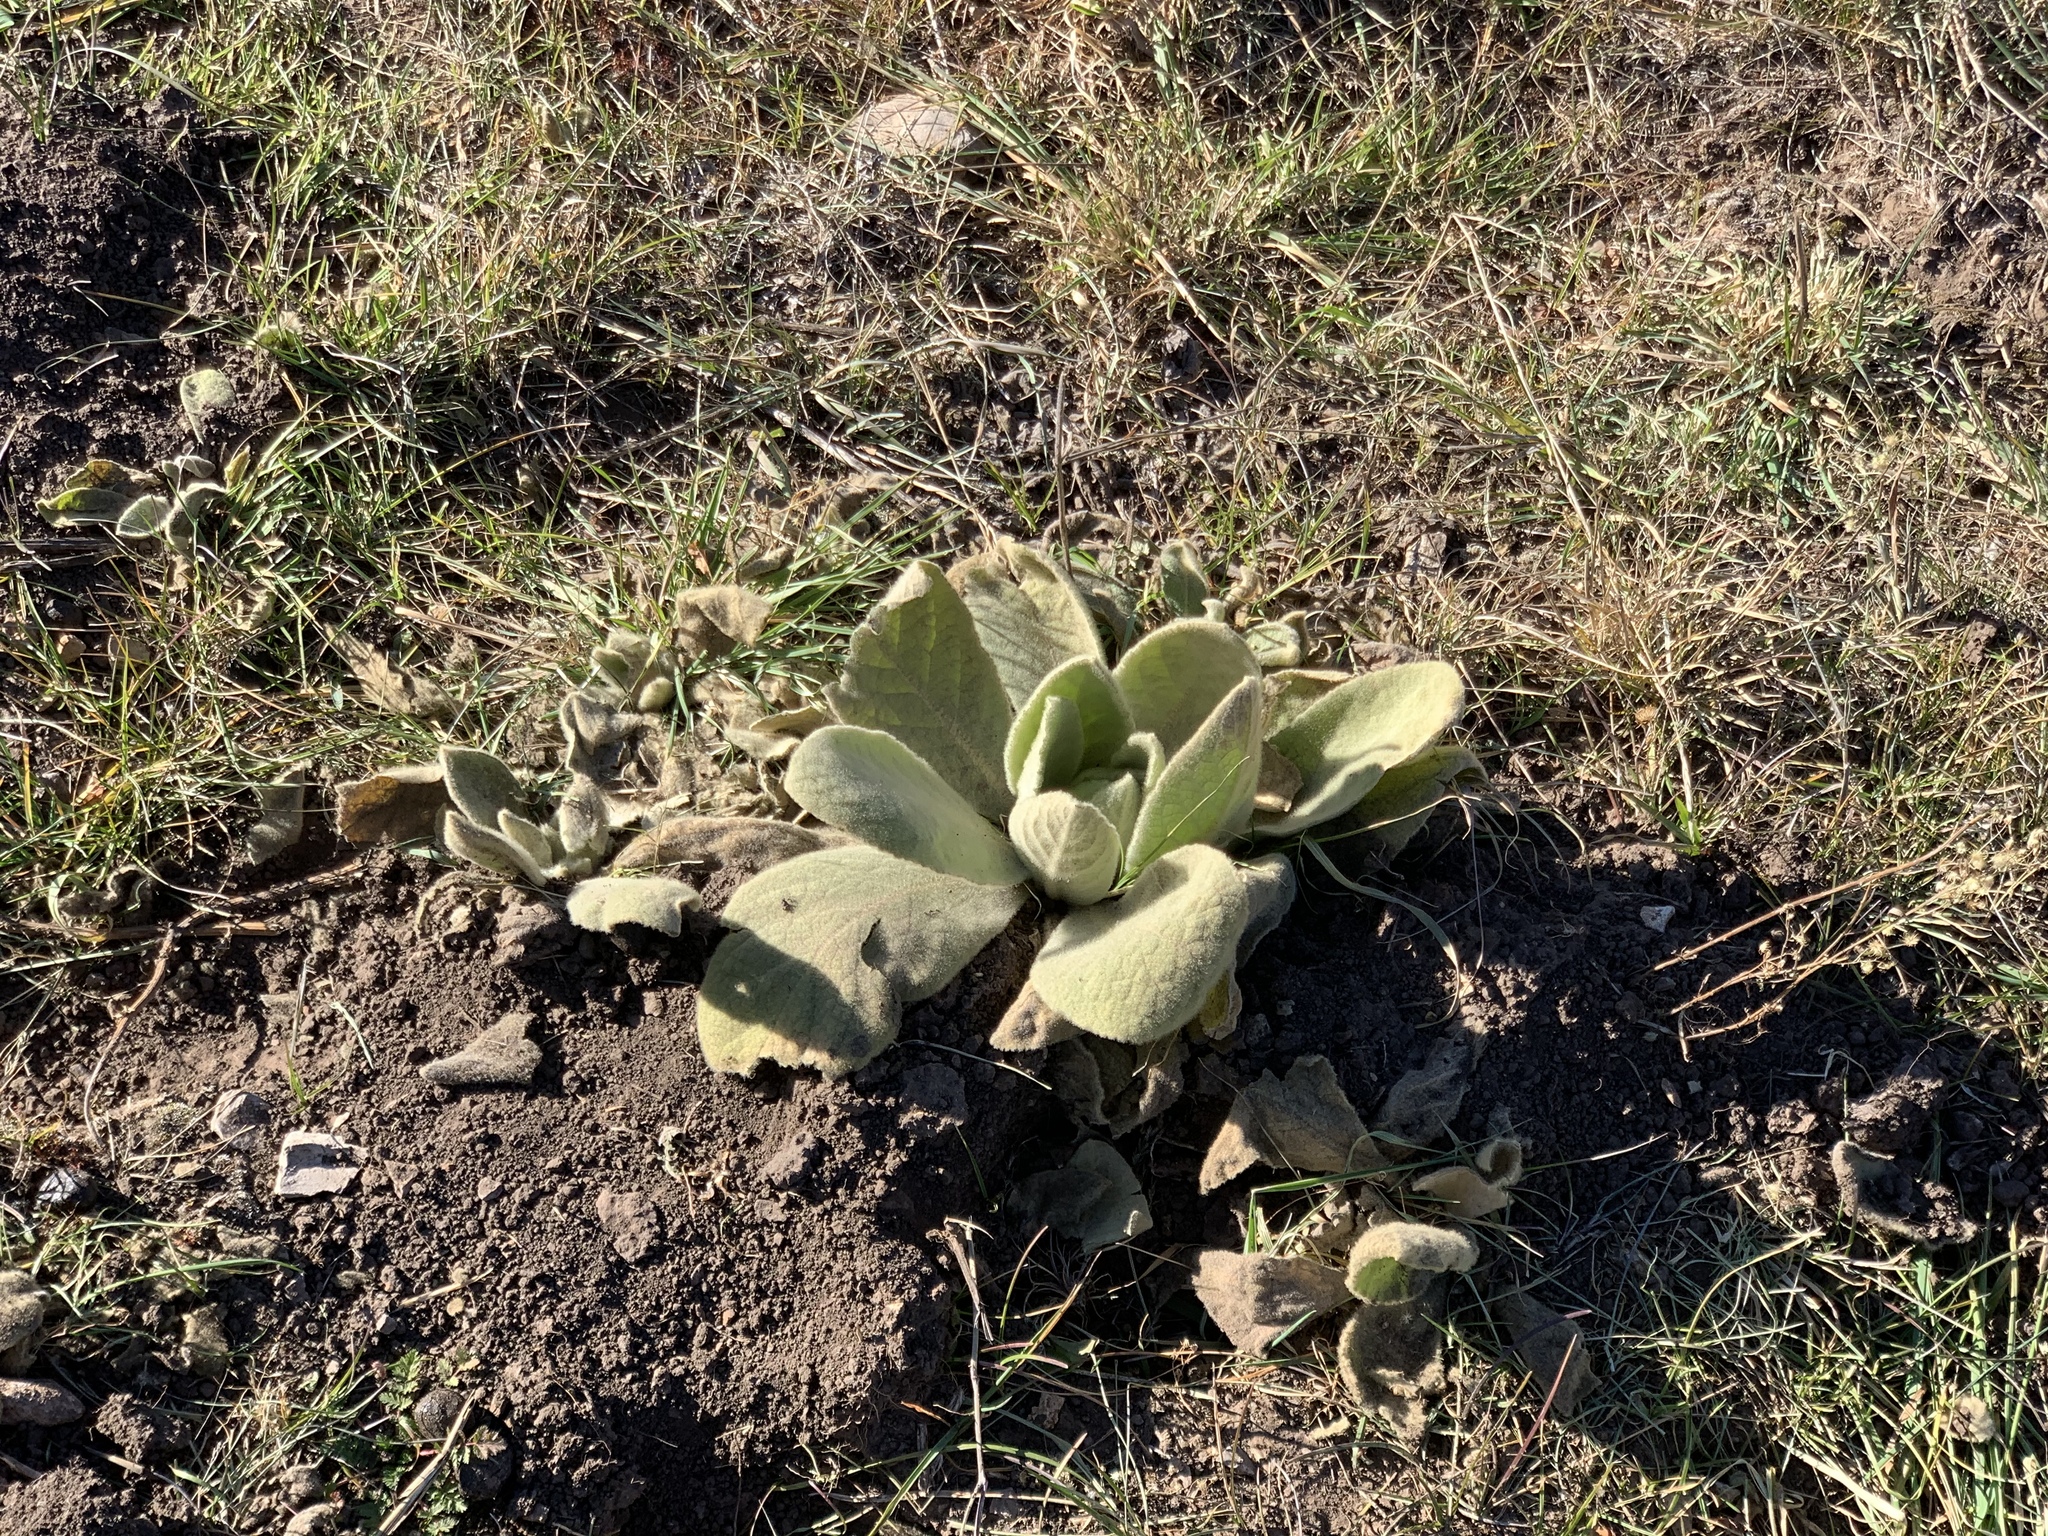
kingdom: Plantae
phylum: Tracheophyta
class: Magnoliopsida
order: Lamiales
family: Scrophulariaceae
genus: Verbascum
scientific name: Verbascum thapsus
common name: Common mullein
